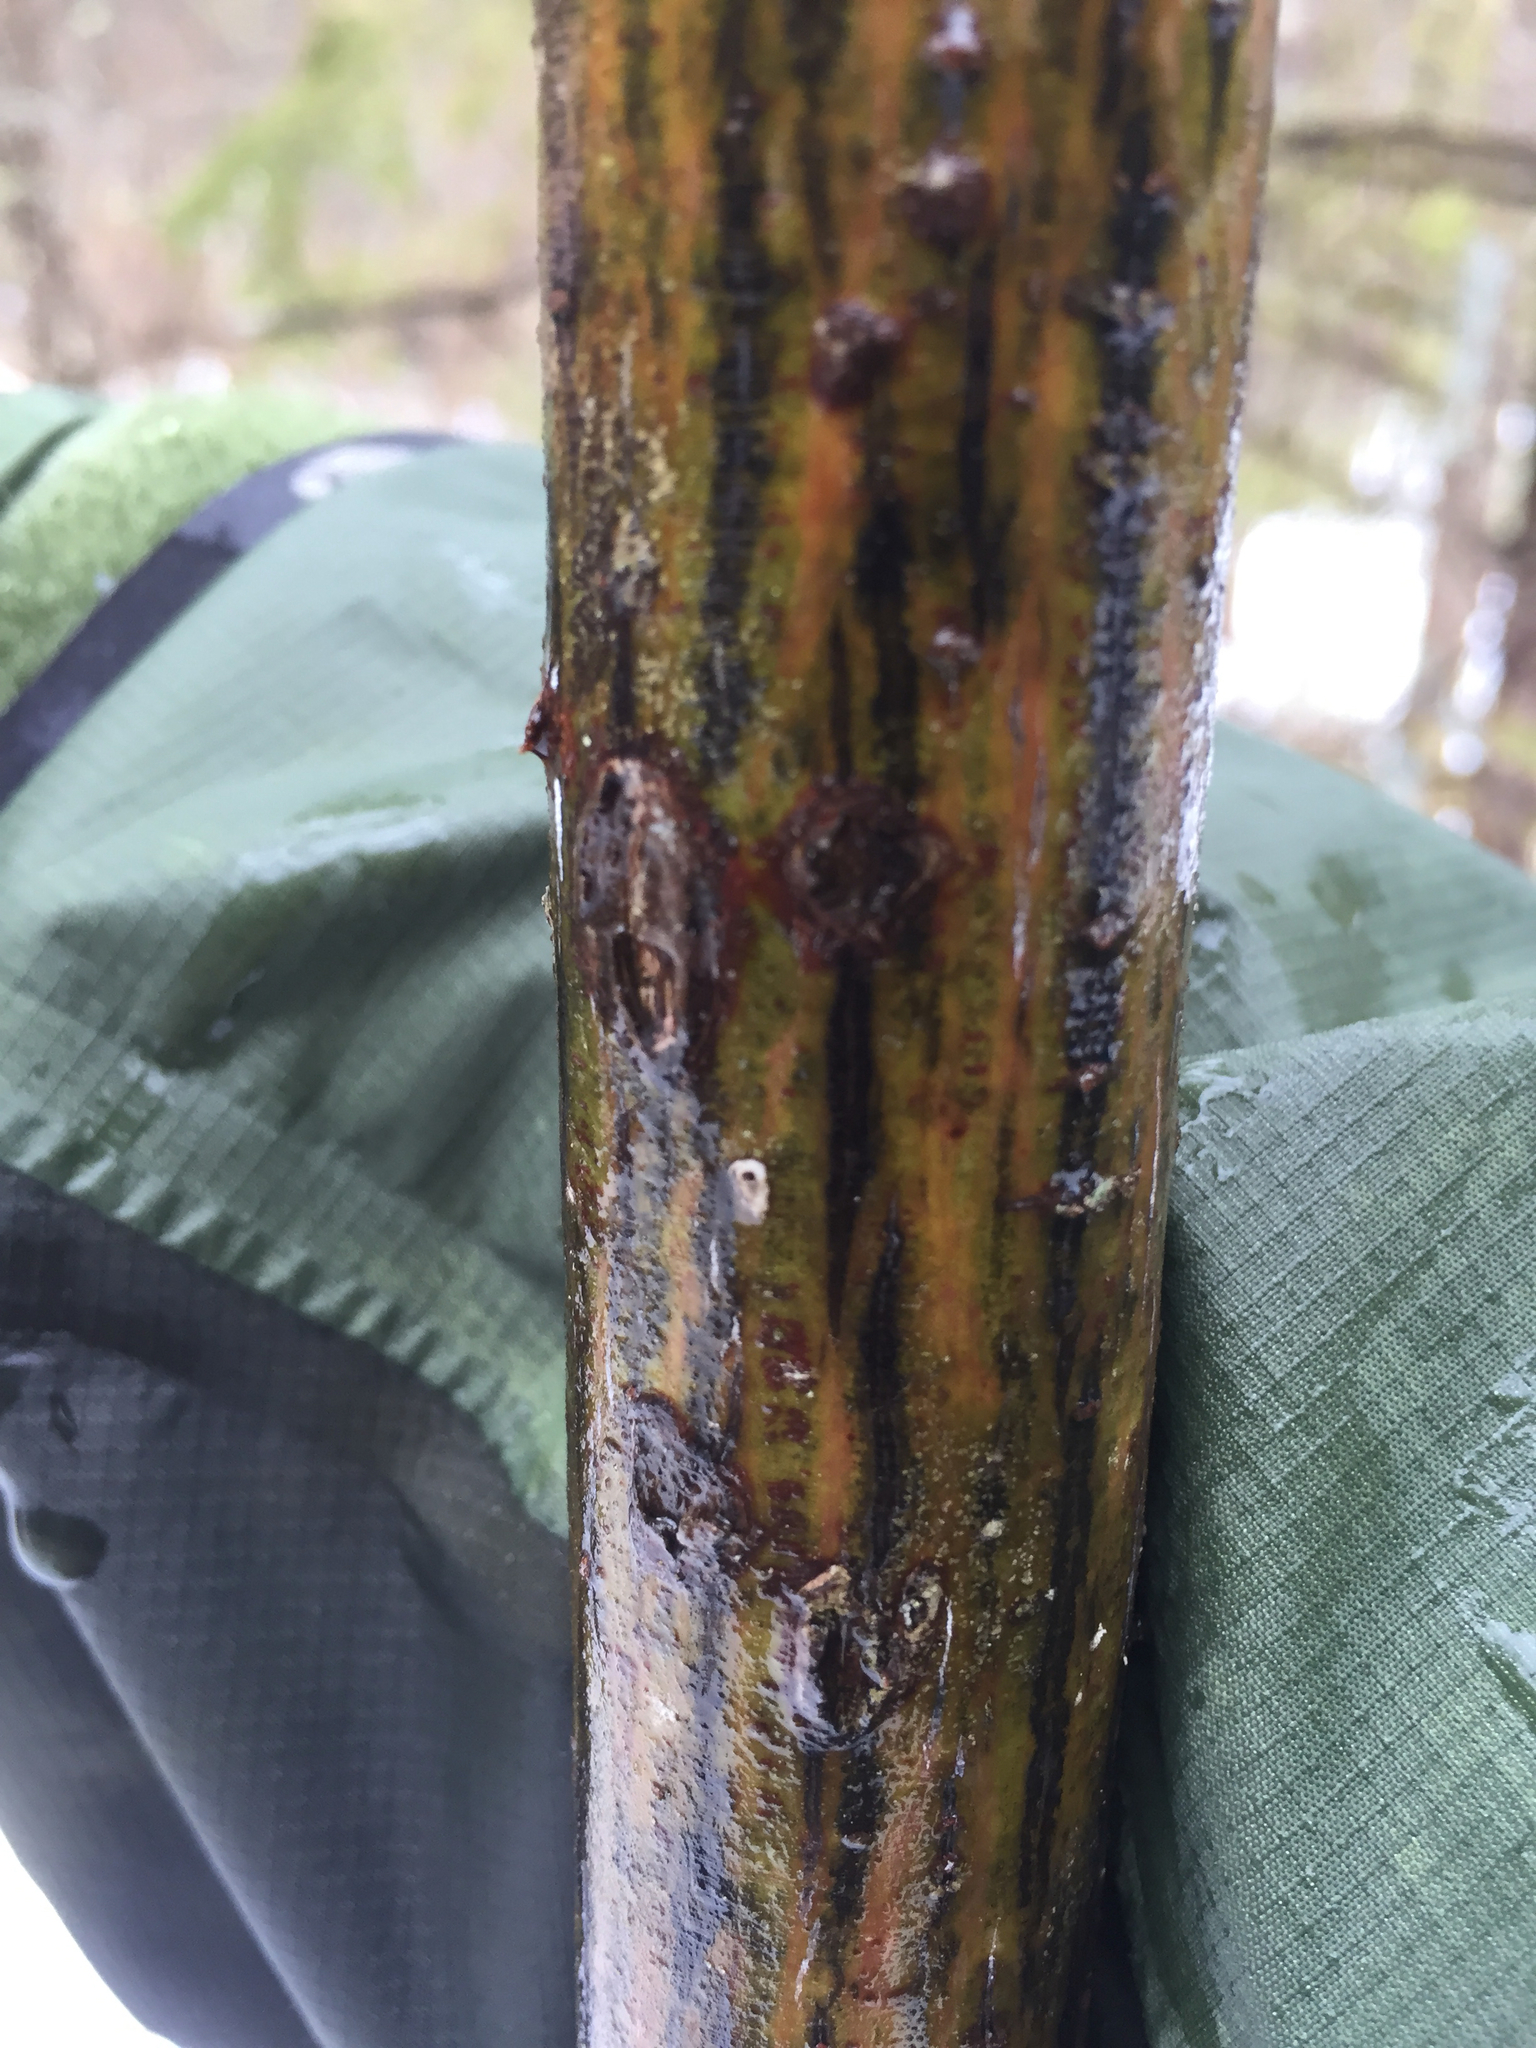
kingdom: Plantae
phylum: Tracheophyta
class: Magnoliopsida
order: Sapindales
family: Sapindaceae
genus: Acer
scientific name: Acer pensylvanicum
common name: Moosewood
